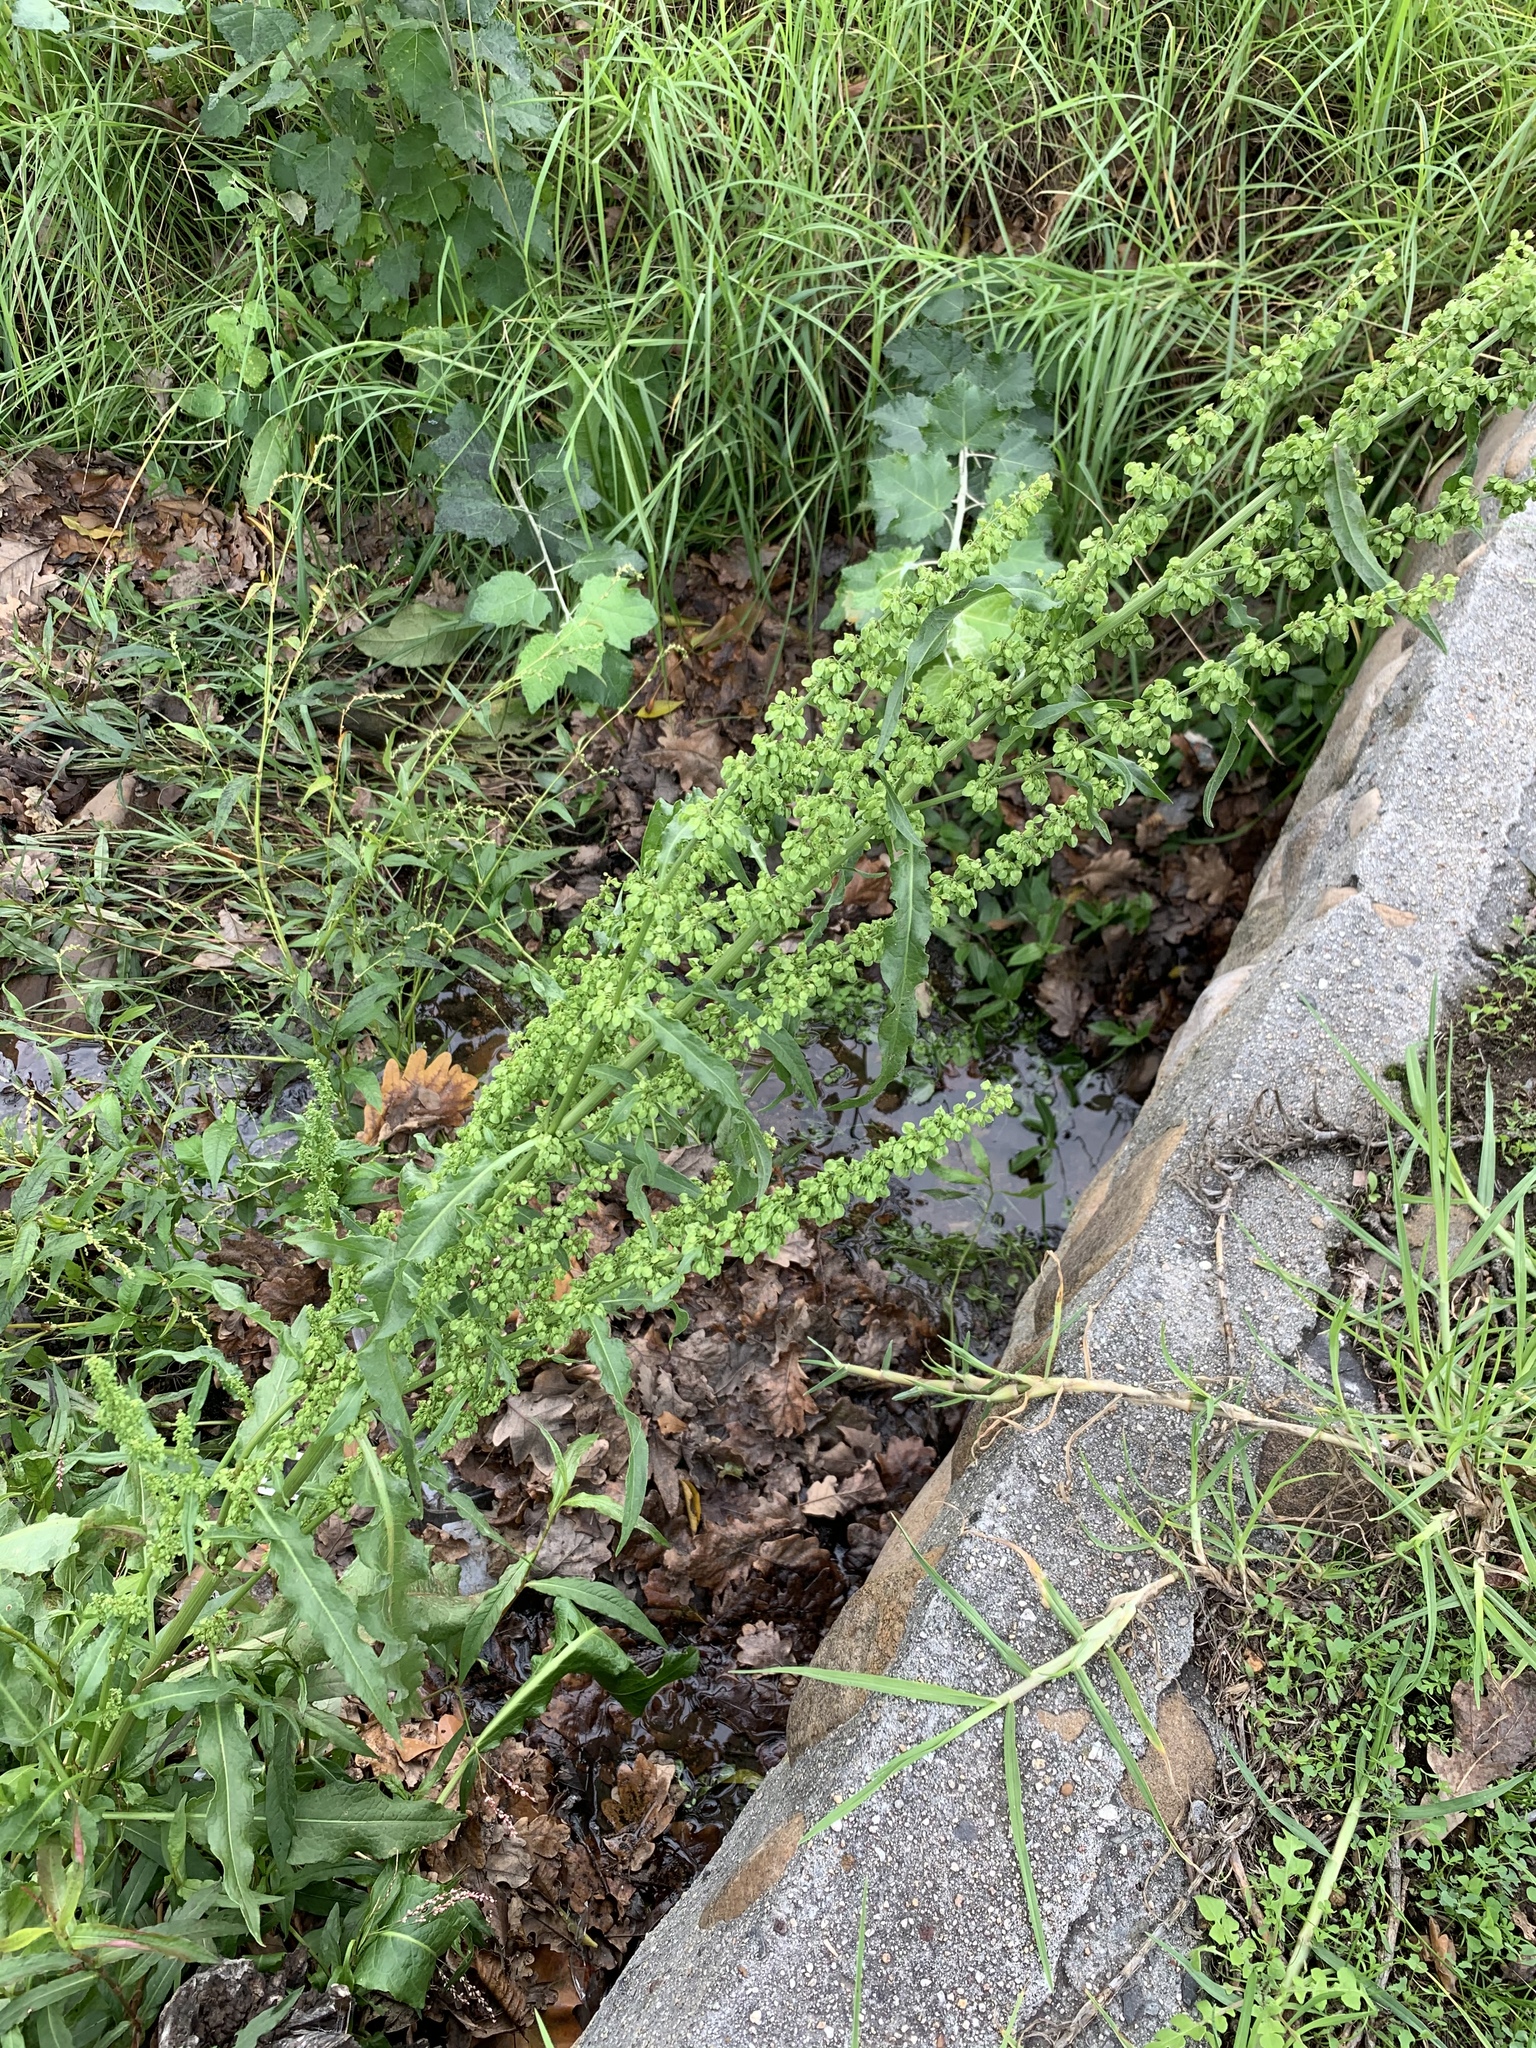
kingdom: Plantae
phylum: Tracheophyta
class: Magnoliopsida
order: Caryophyllales
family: Polygonaceae
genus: Rumex
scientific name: Rumex crispus
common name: Curled dock
